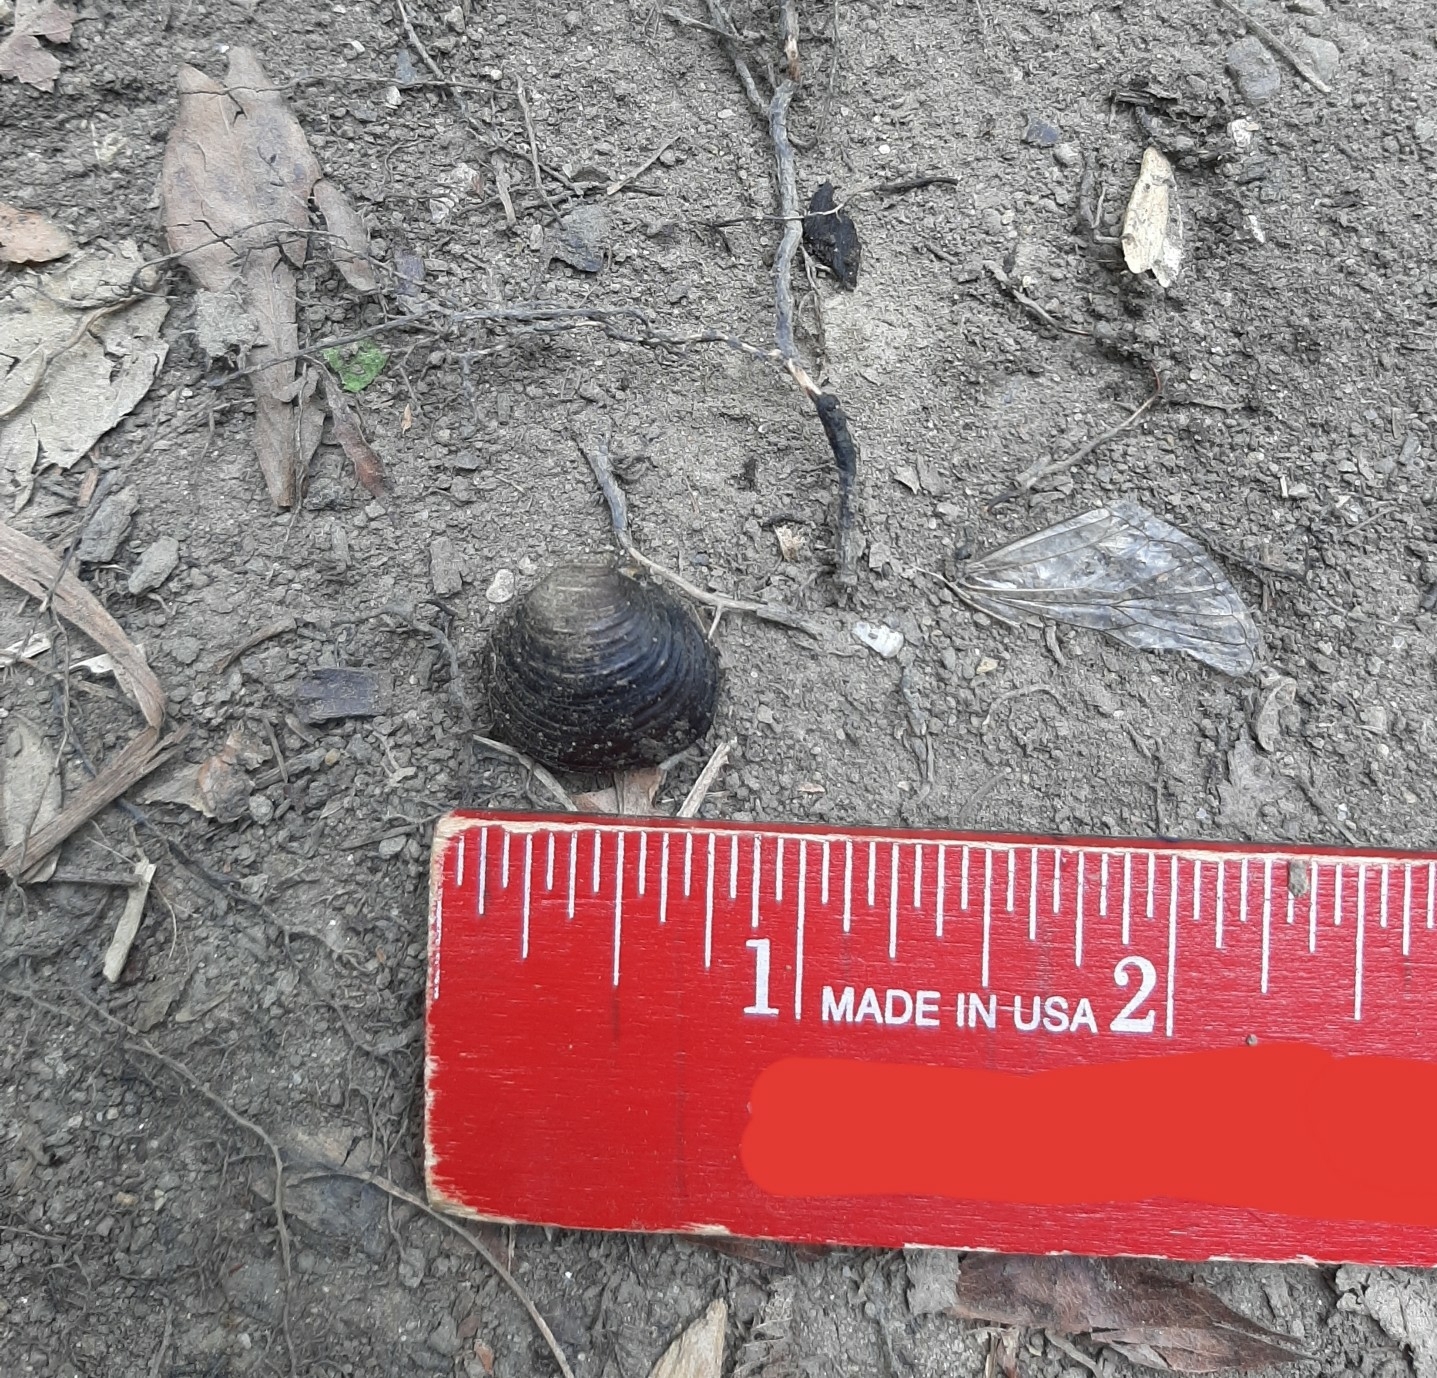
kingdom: Animalia
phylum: Mollusca
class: Bivalvia
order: Venerida
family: Cyrenidae
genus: Corbicula
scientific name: Corbicula fluminea
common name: Asian clam
